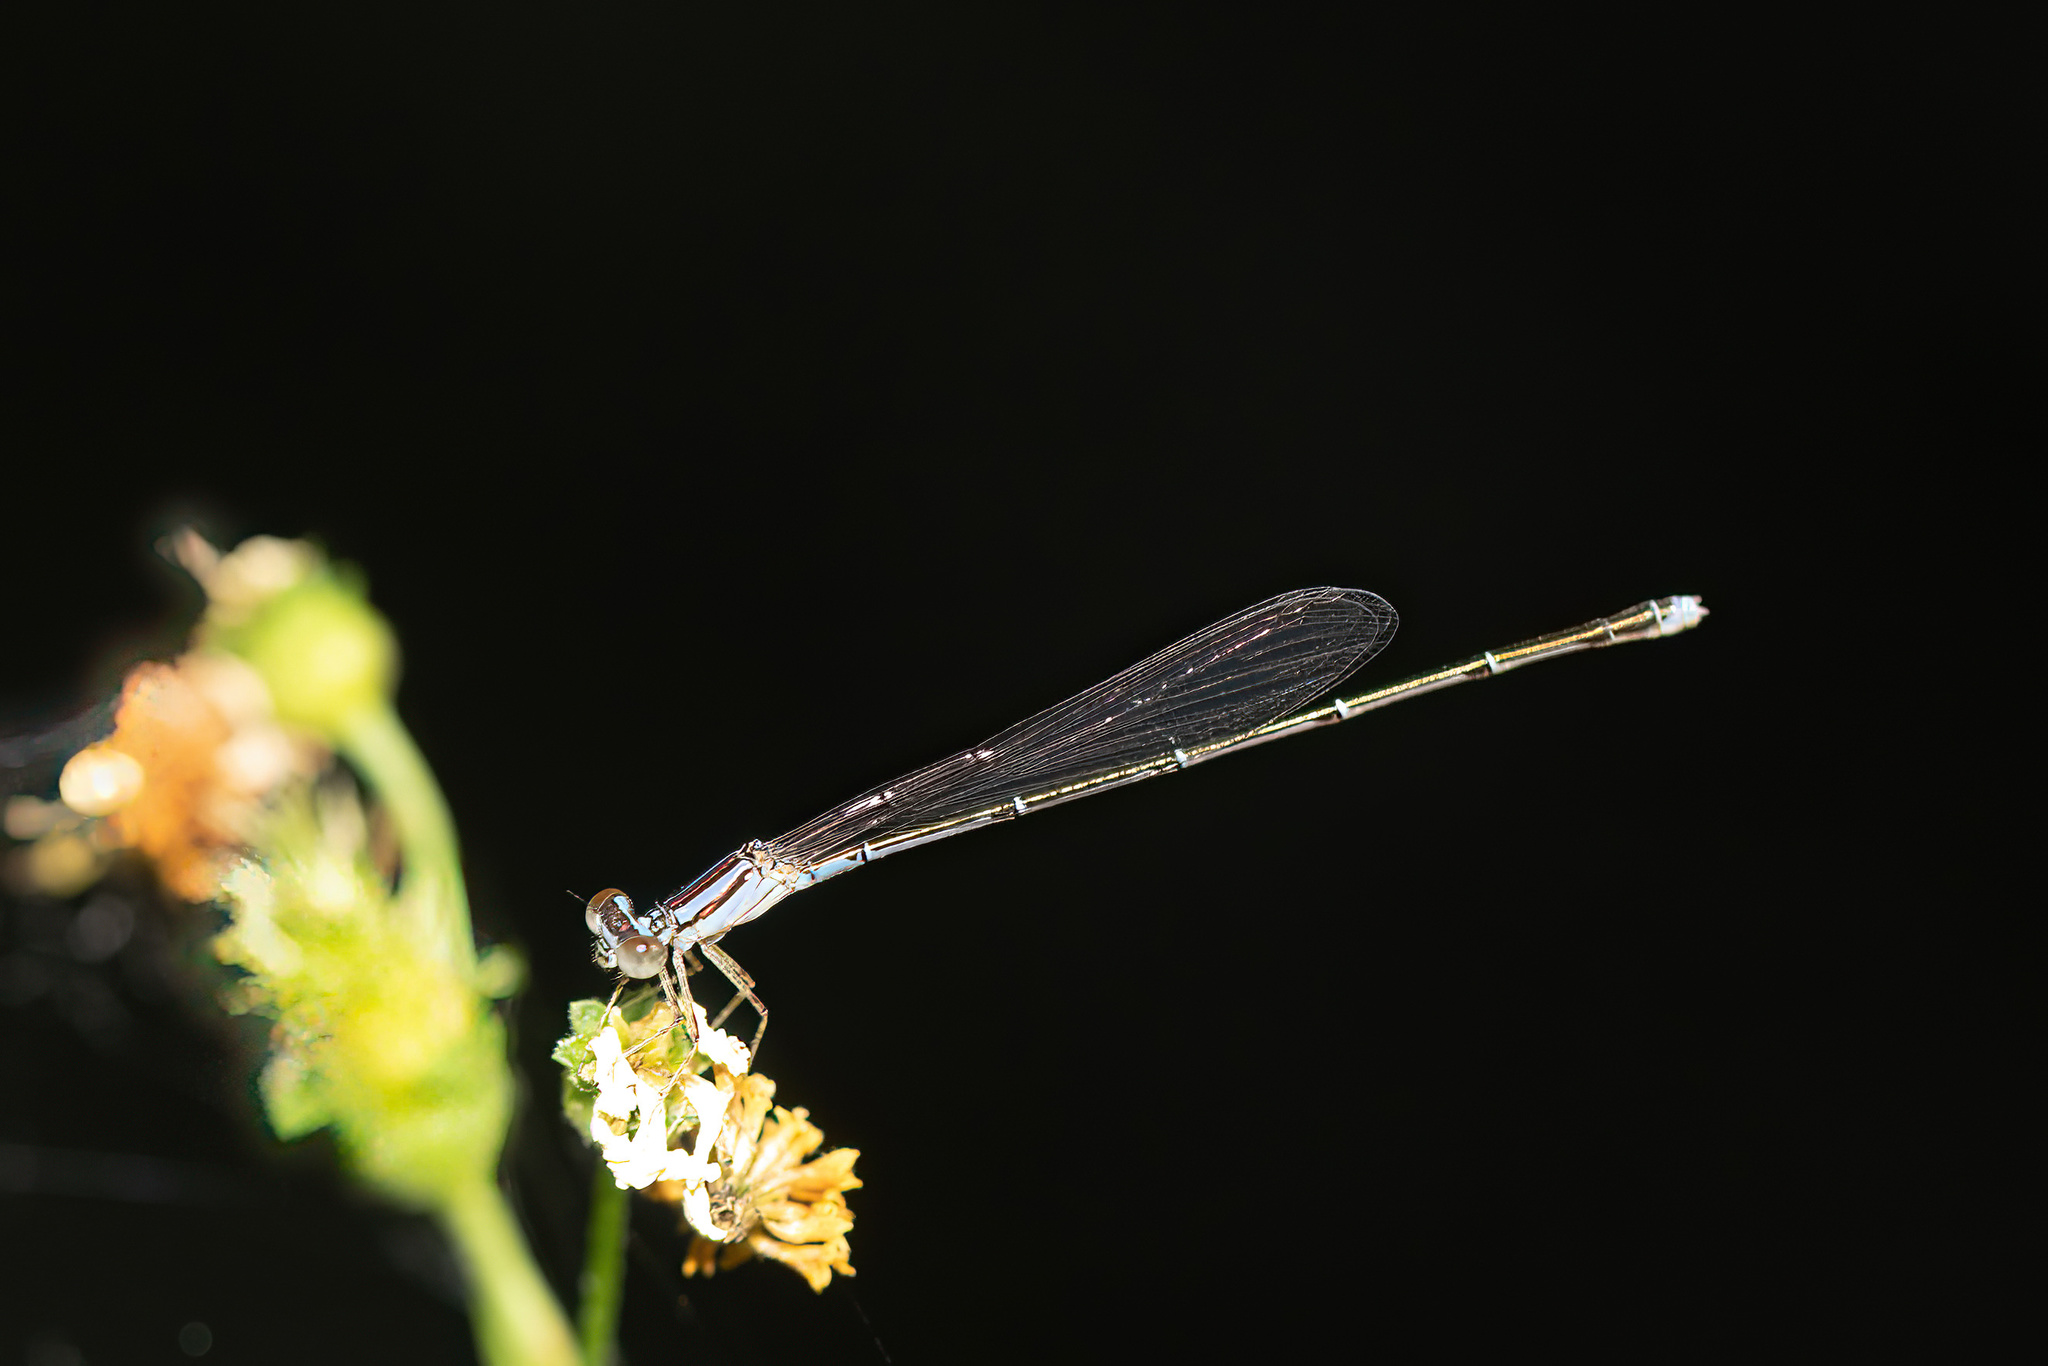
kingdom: Animalia
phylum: Arthropoda
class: Insecta
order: Odonata
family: Coenagrionidae
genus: Enallagma
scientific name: Enallagma pollutum
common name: Florida bluet
